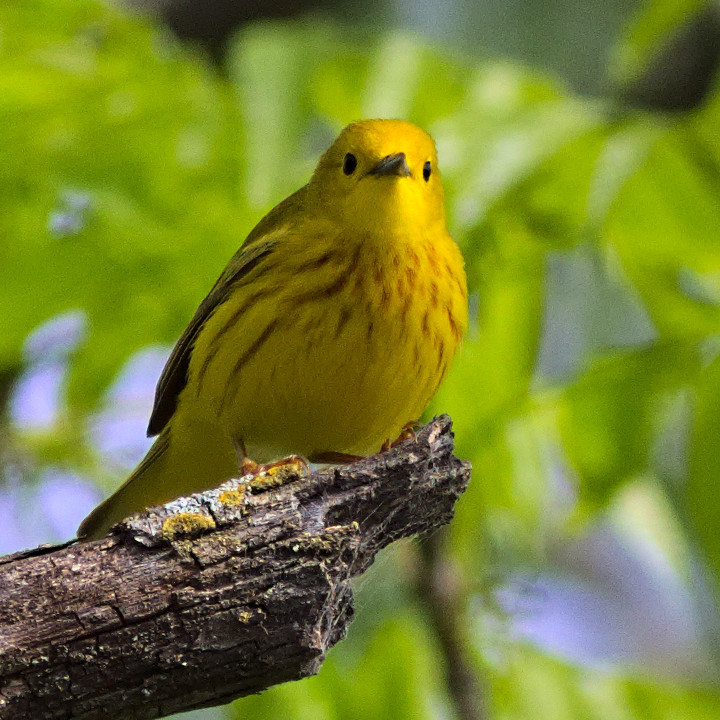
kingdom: Animalia
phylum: Chordata
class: Aves
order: Passeriformes
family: Parulidae
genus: Setophaga
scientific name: Setophaga petechia
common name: Yellow warbler
